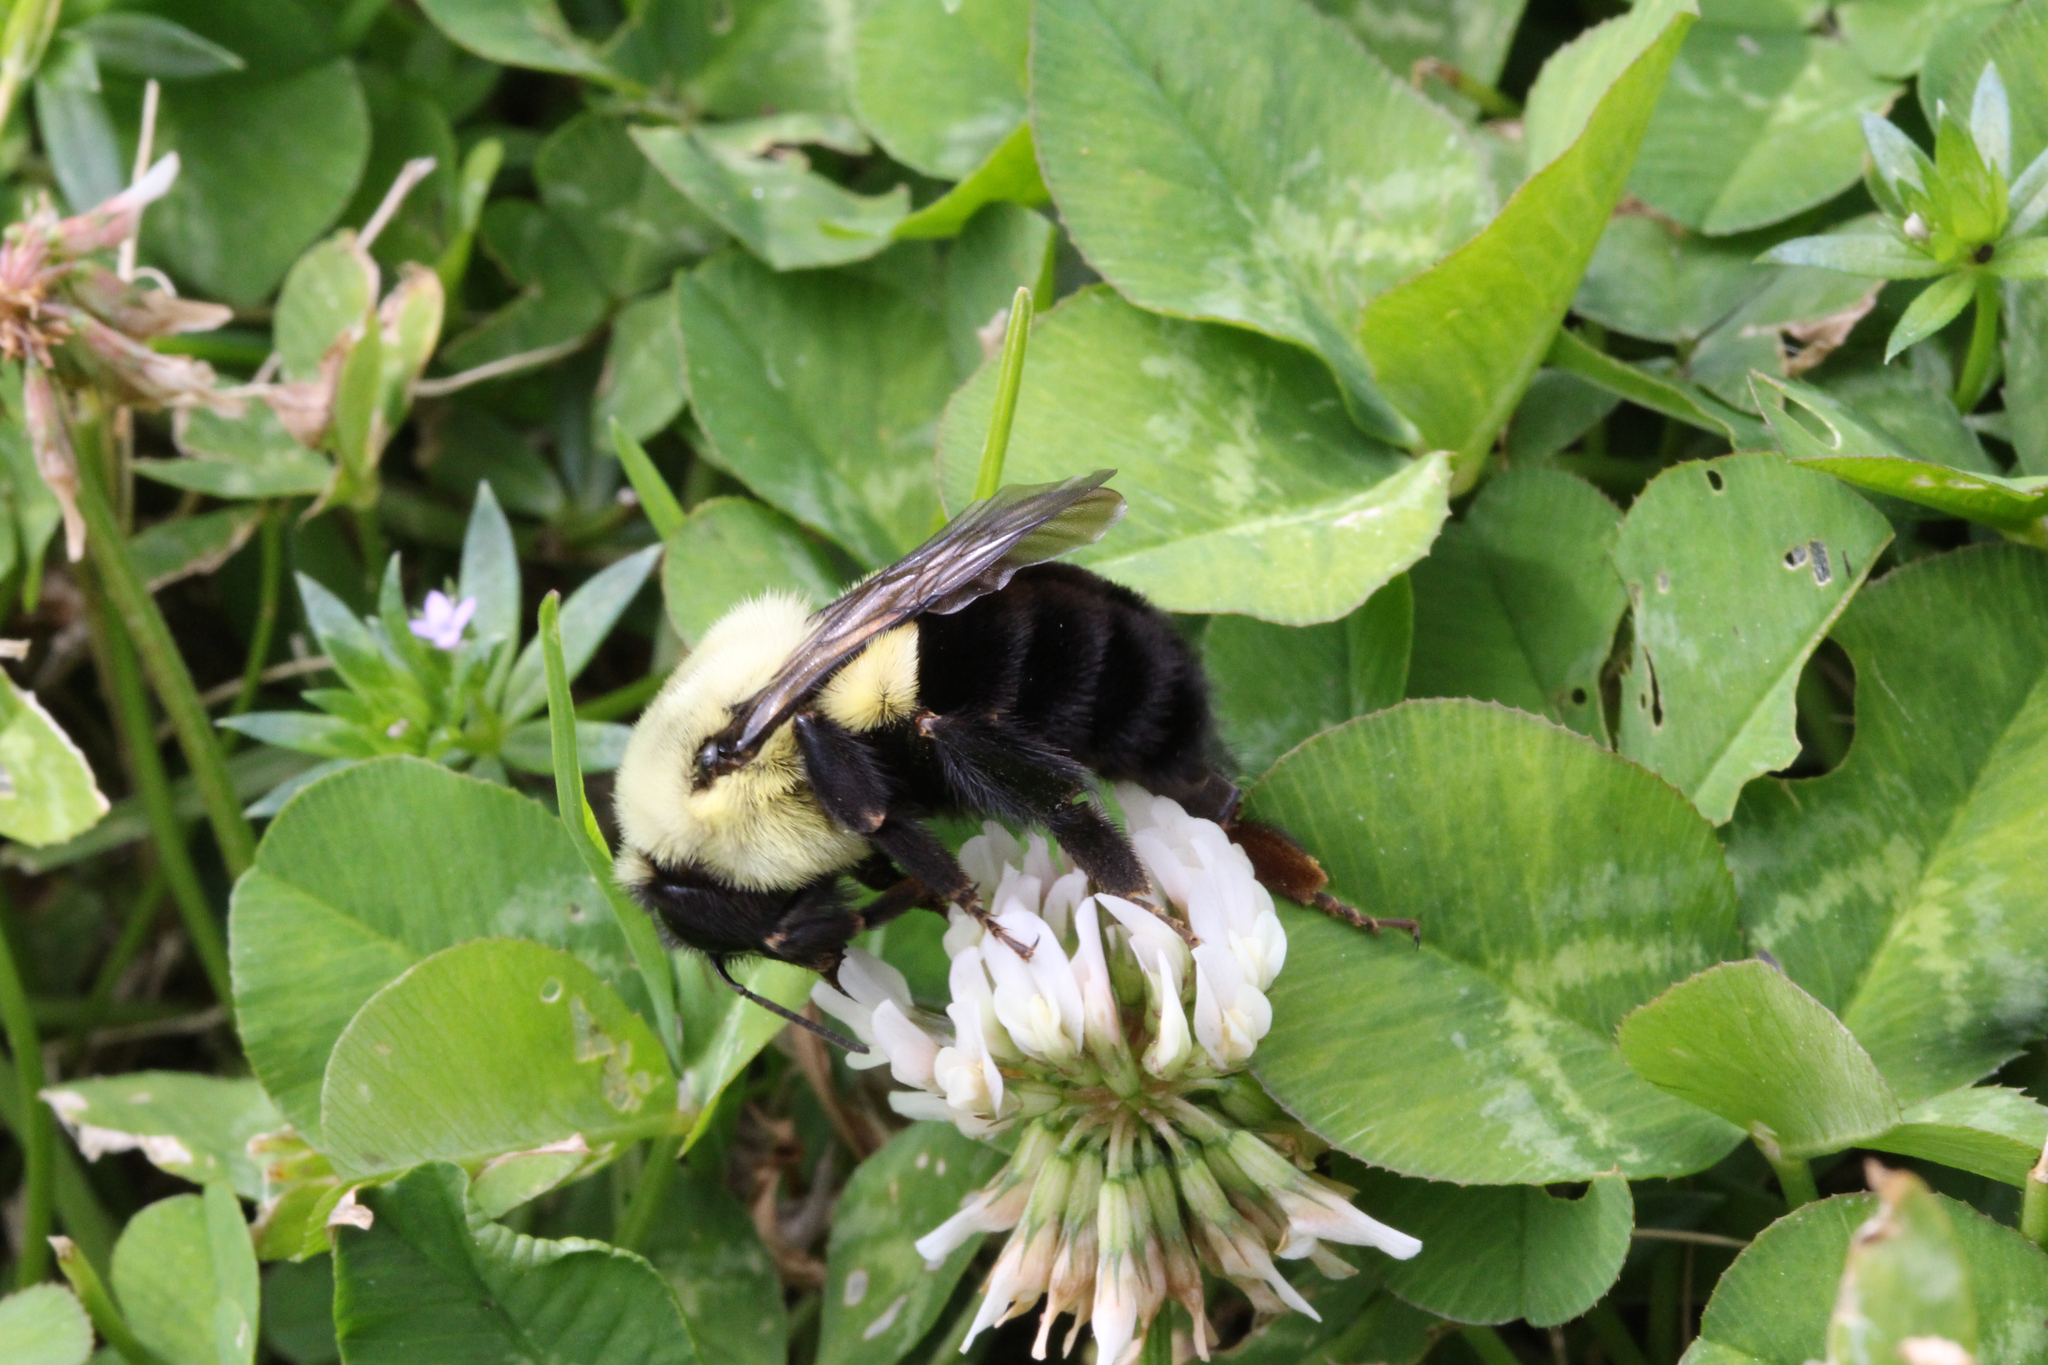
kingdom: Animalia
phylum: Arthropoda
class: Insecta
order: Hymenoptera
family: Apidae
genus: Bombus
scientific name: Bombus impatiens
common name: Common eastern bumble bee
